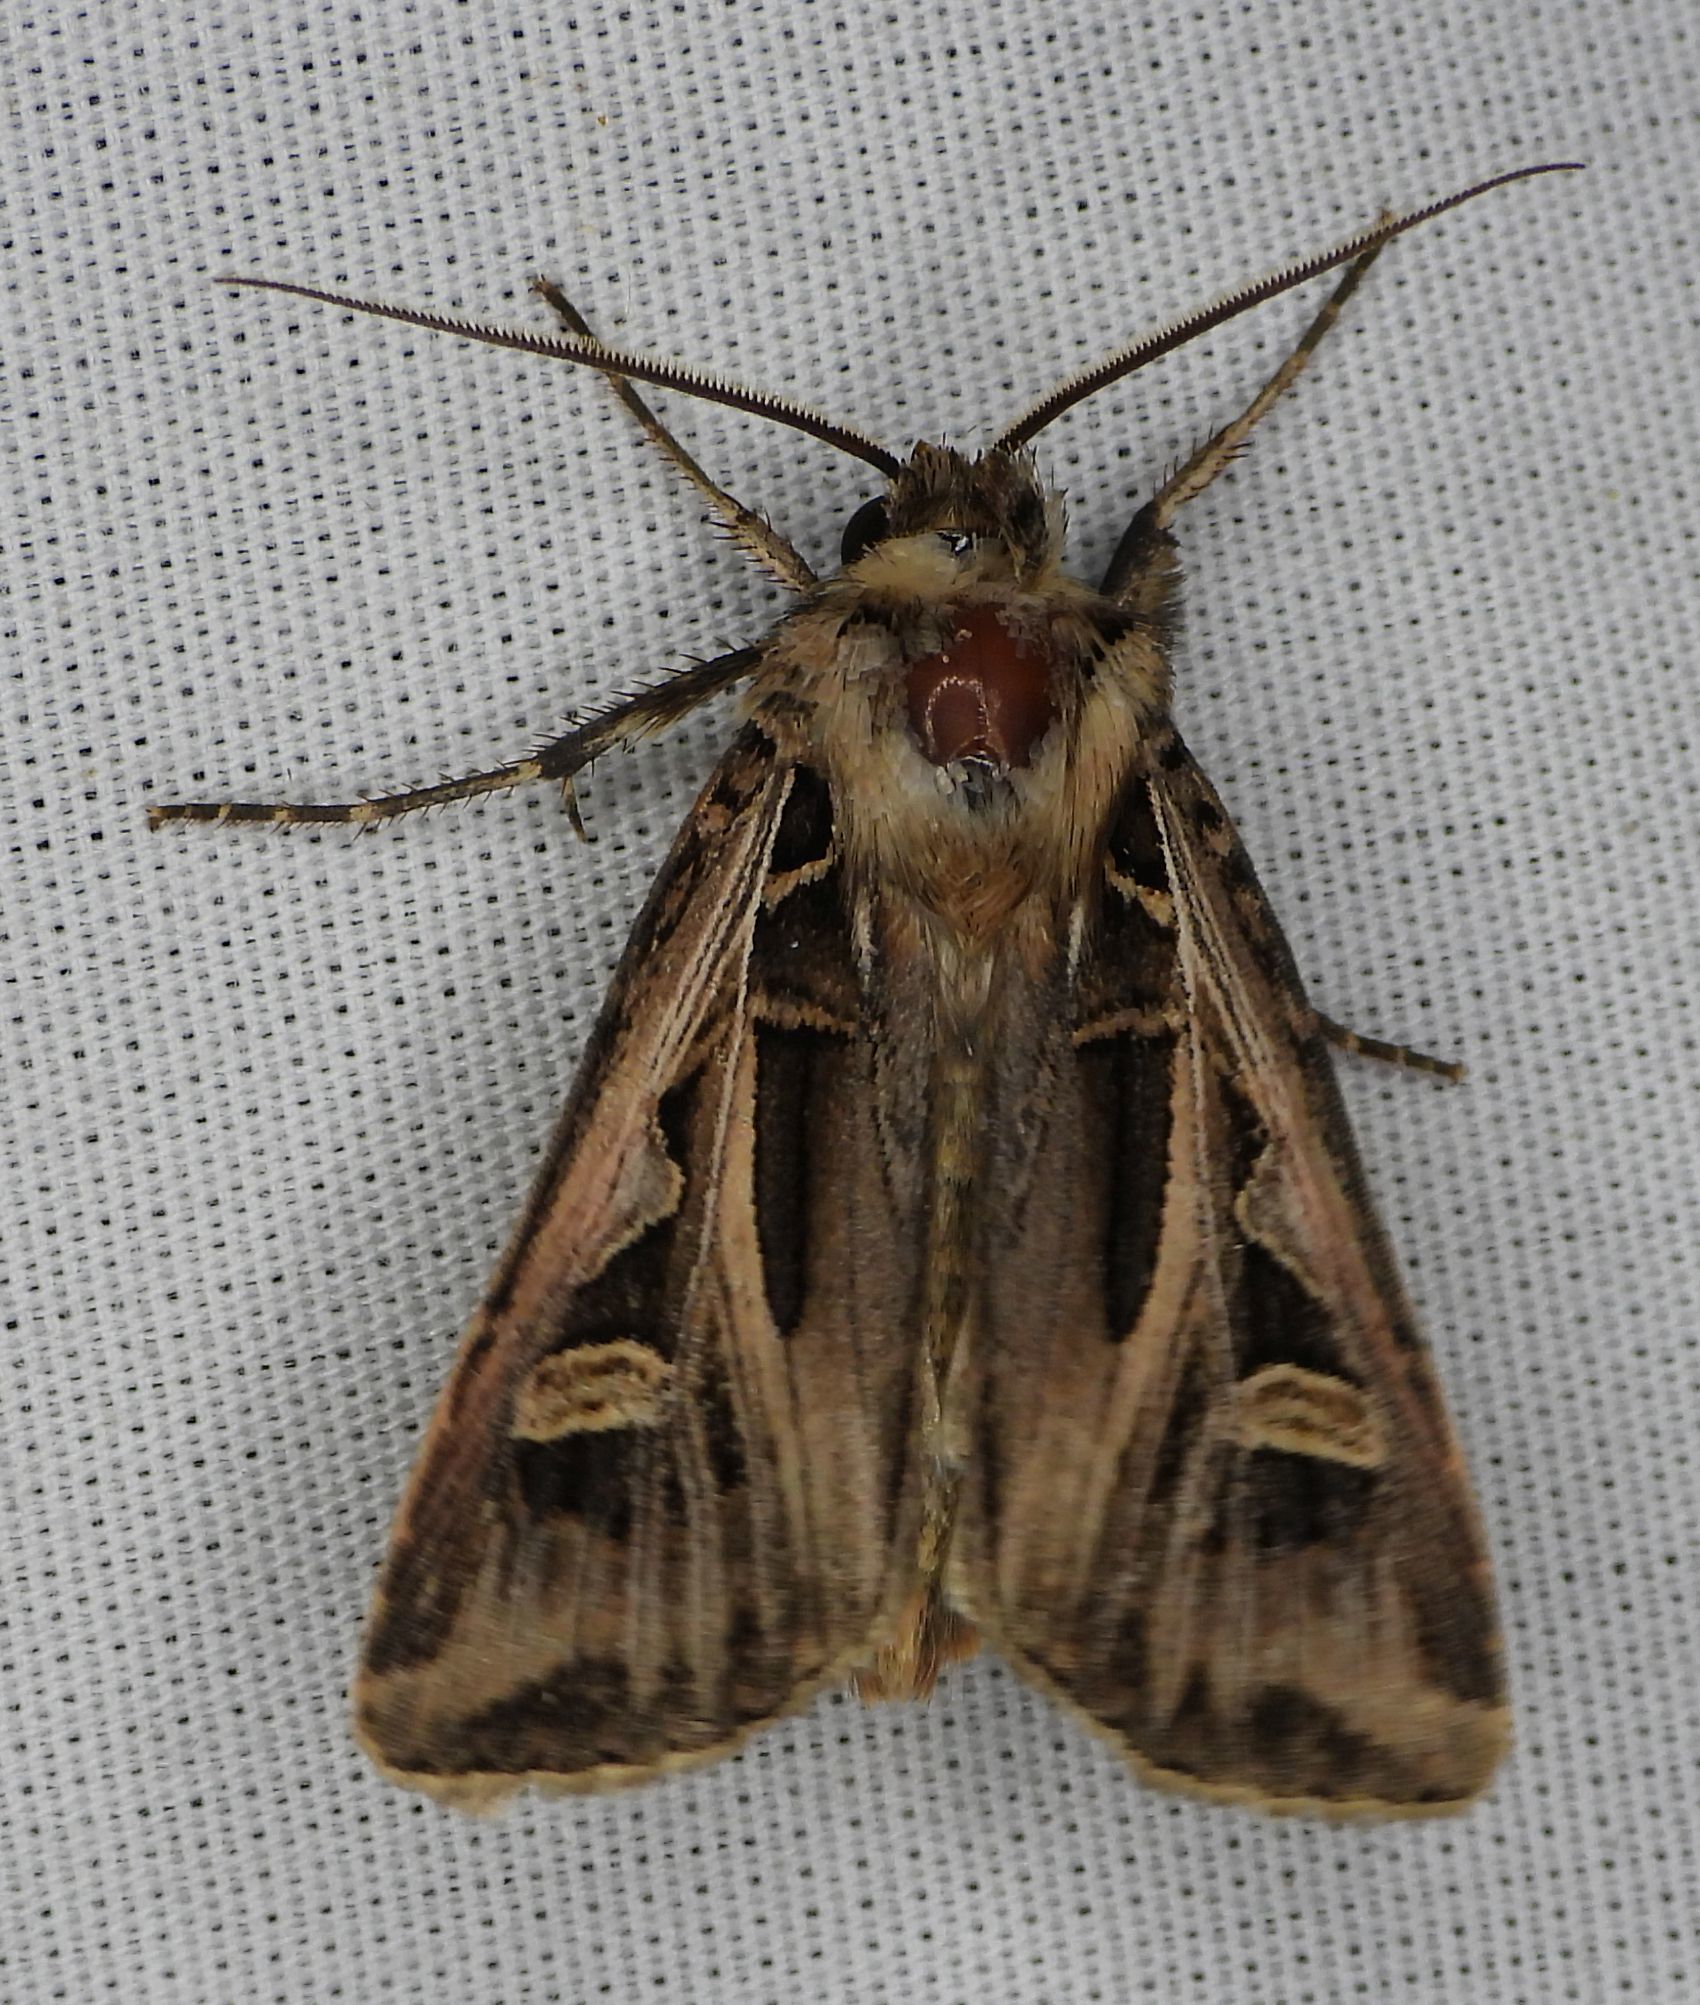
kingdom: Animalia
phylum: Arthropoda
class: Insecta
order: Lepidoptera
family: Noctuidae
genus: Feltia
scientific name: Feltia jaculifera
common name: Dingy cutworm moth
